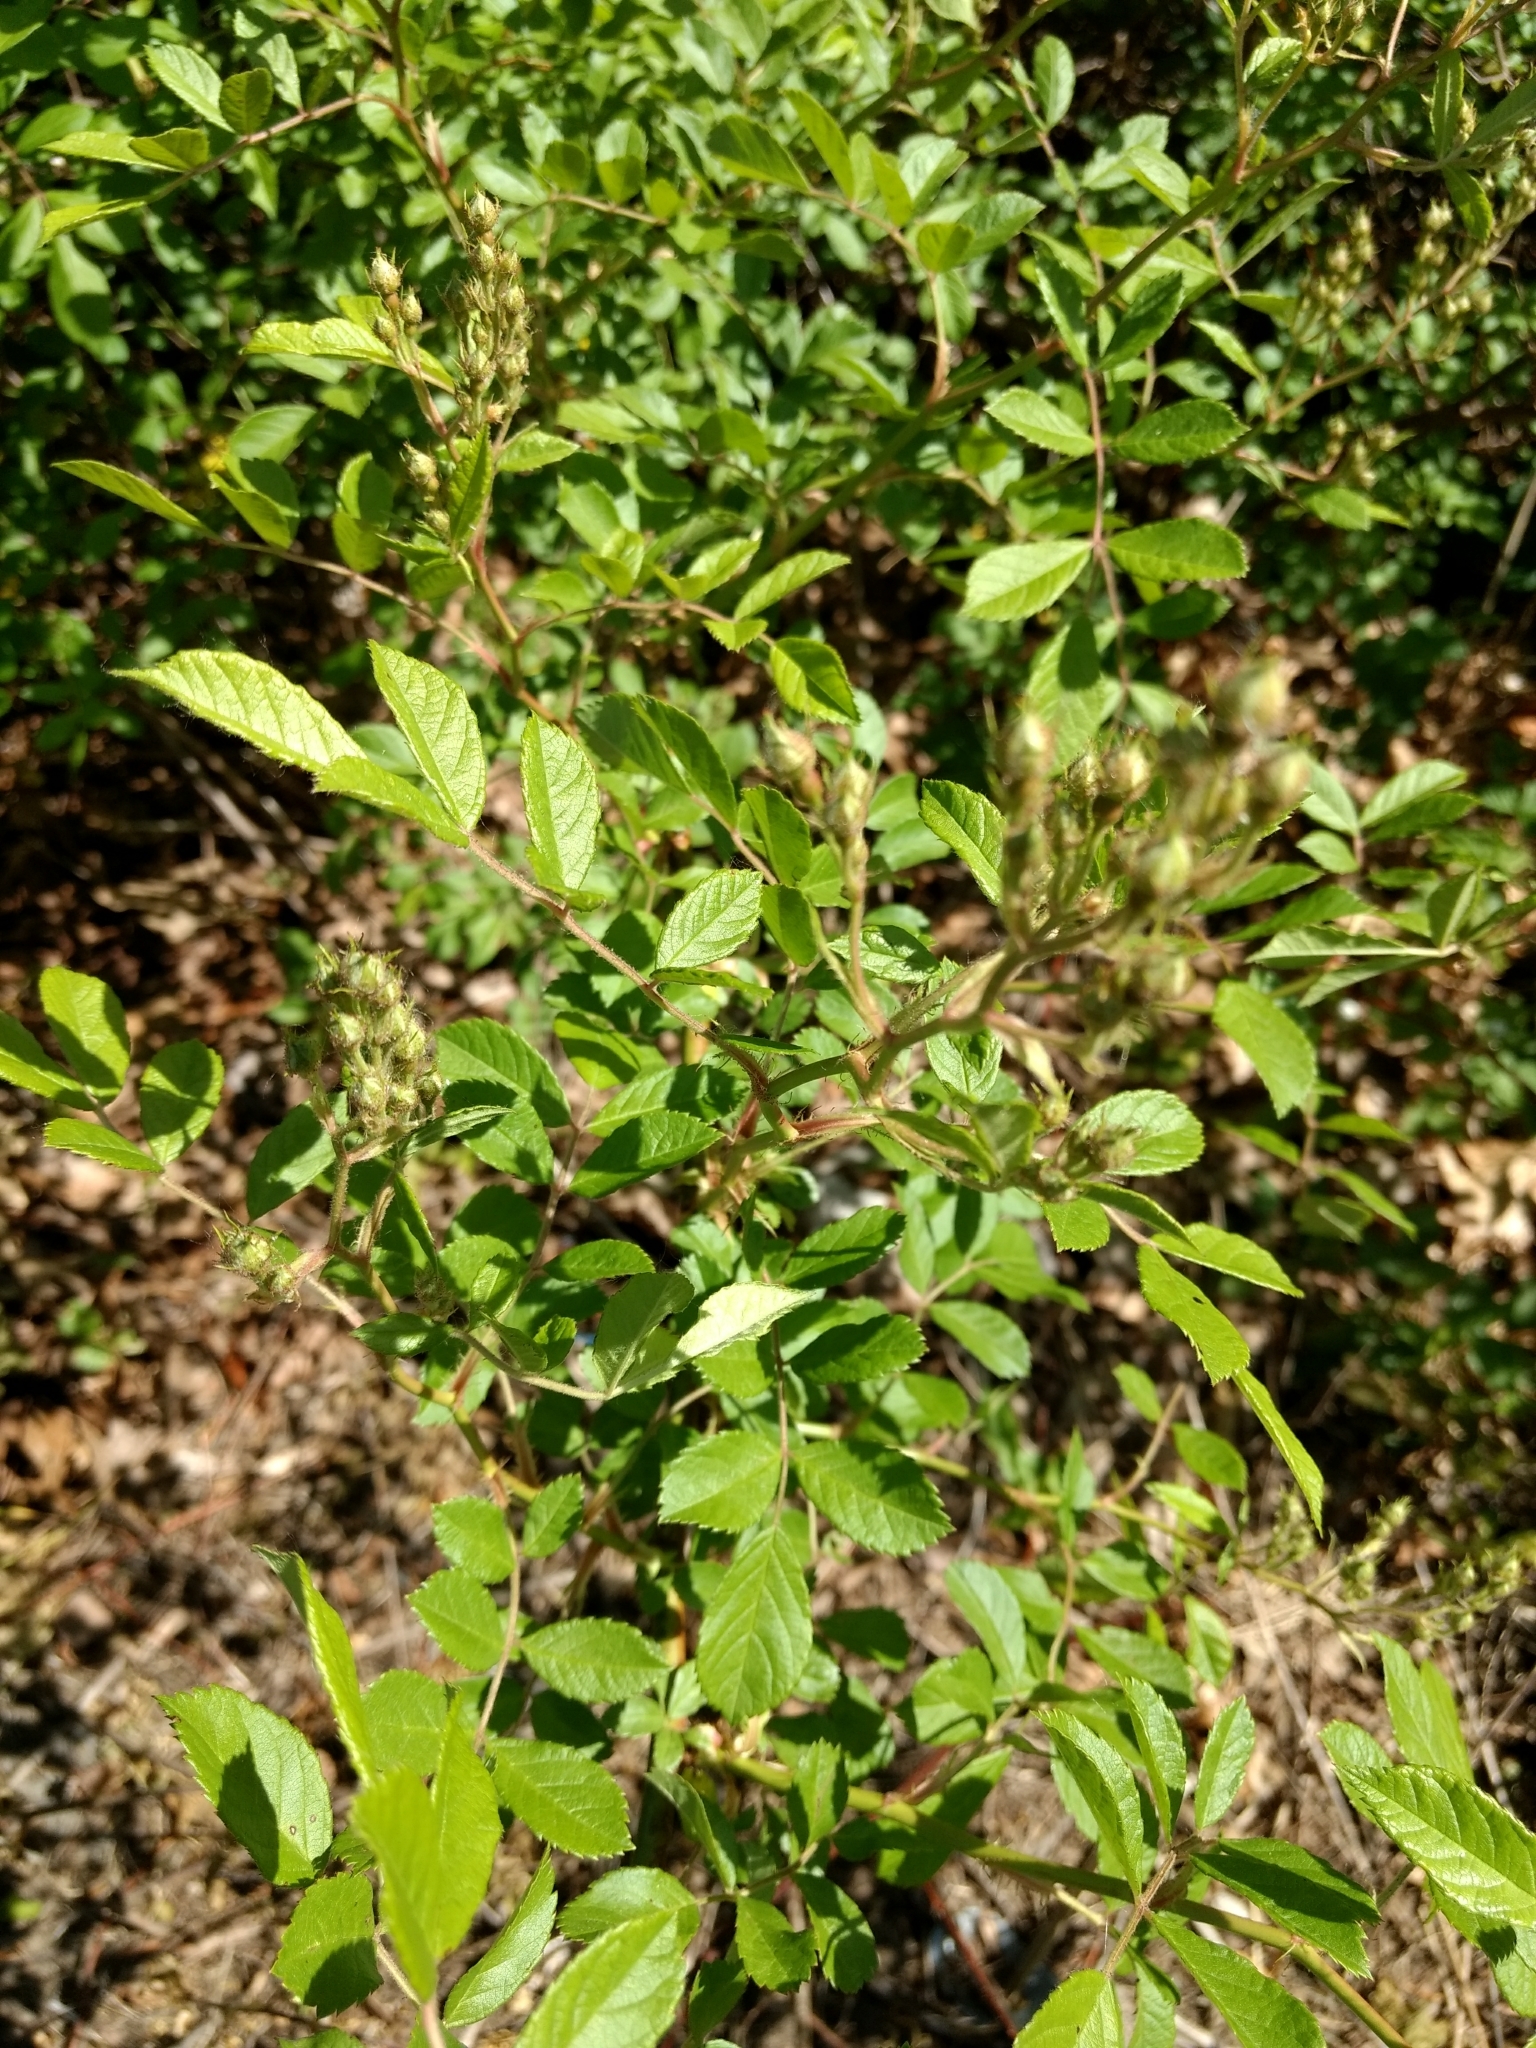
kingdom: Plantae
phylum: Tracheophyta
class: Magnoliopsida
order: Rosales
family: Rosaceae
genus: Rosa
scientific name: Rosa multiflora
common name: Multiflora rose
